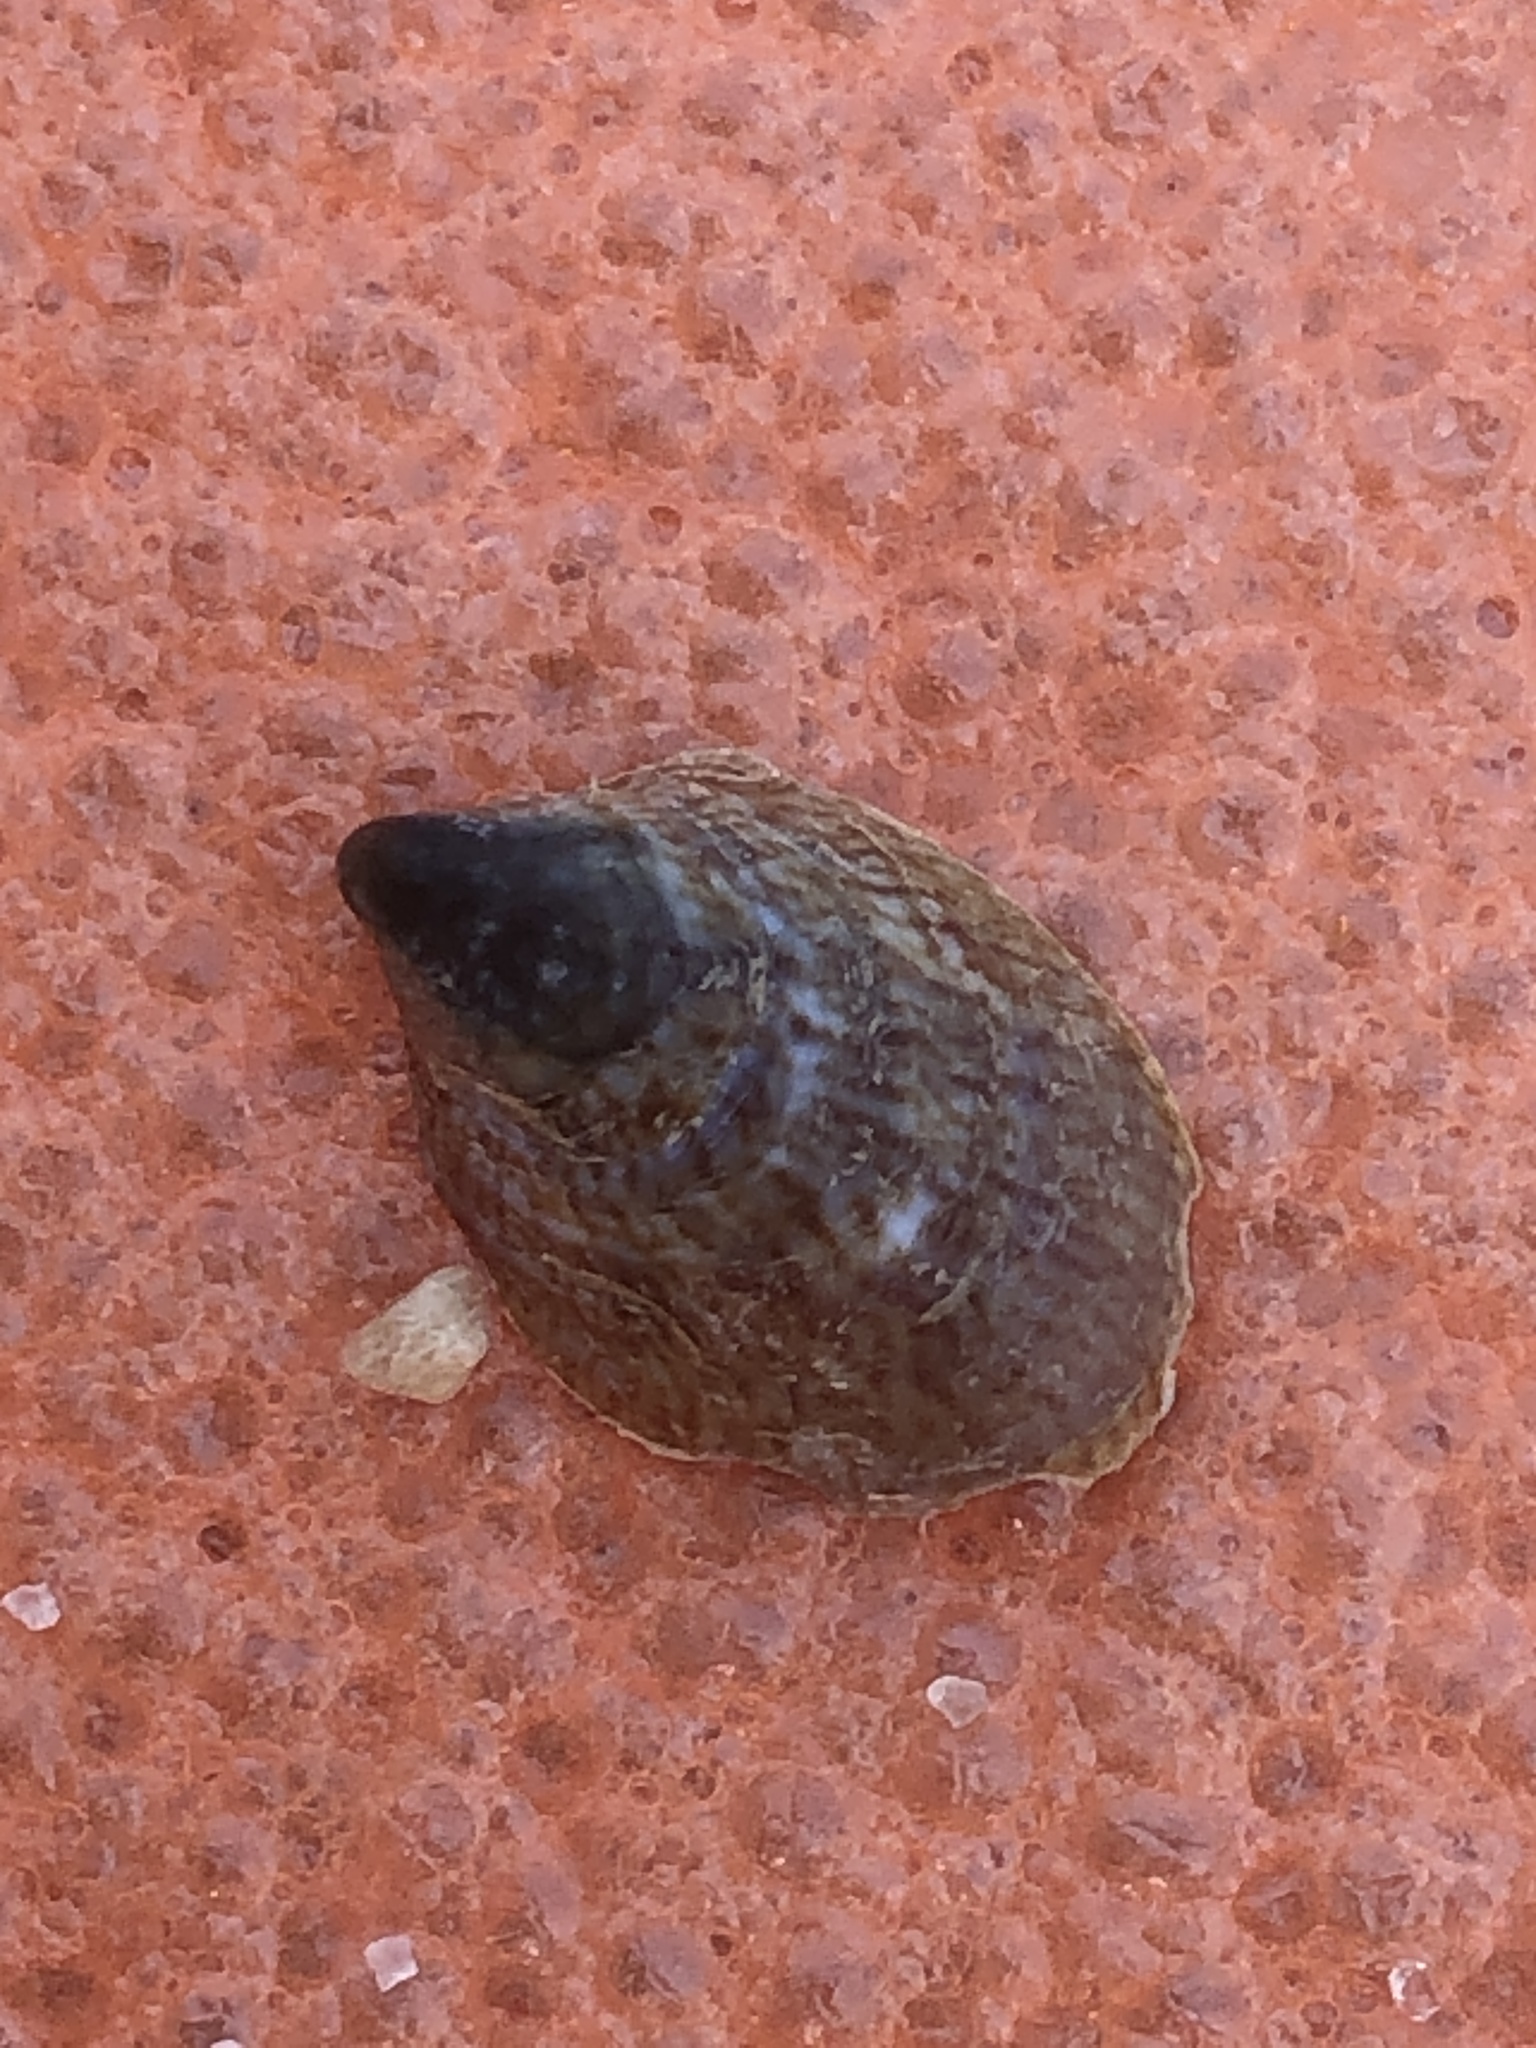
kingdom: Animalia
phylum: Mollusca
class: Gastropoda
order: Littorinimorpha
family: Calyptraeidae
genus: Crepidula
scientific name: Crepidula onyx
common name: Onyx slippersnail
